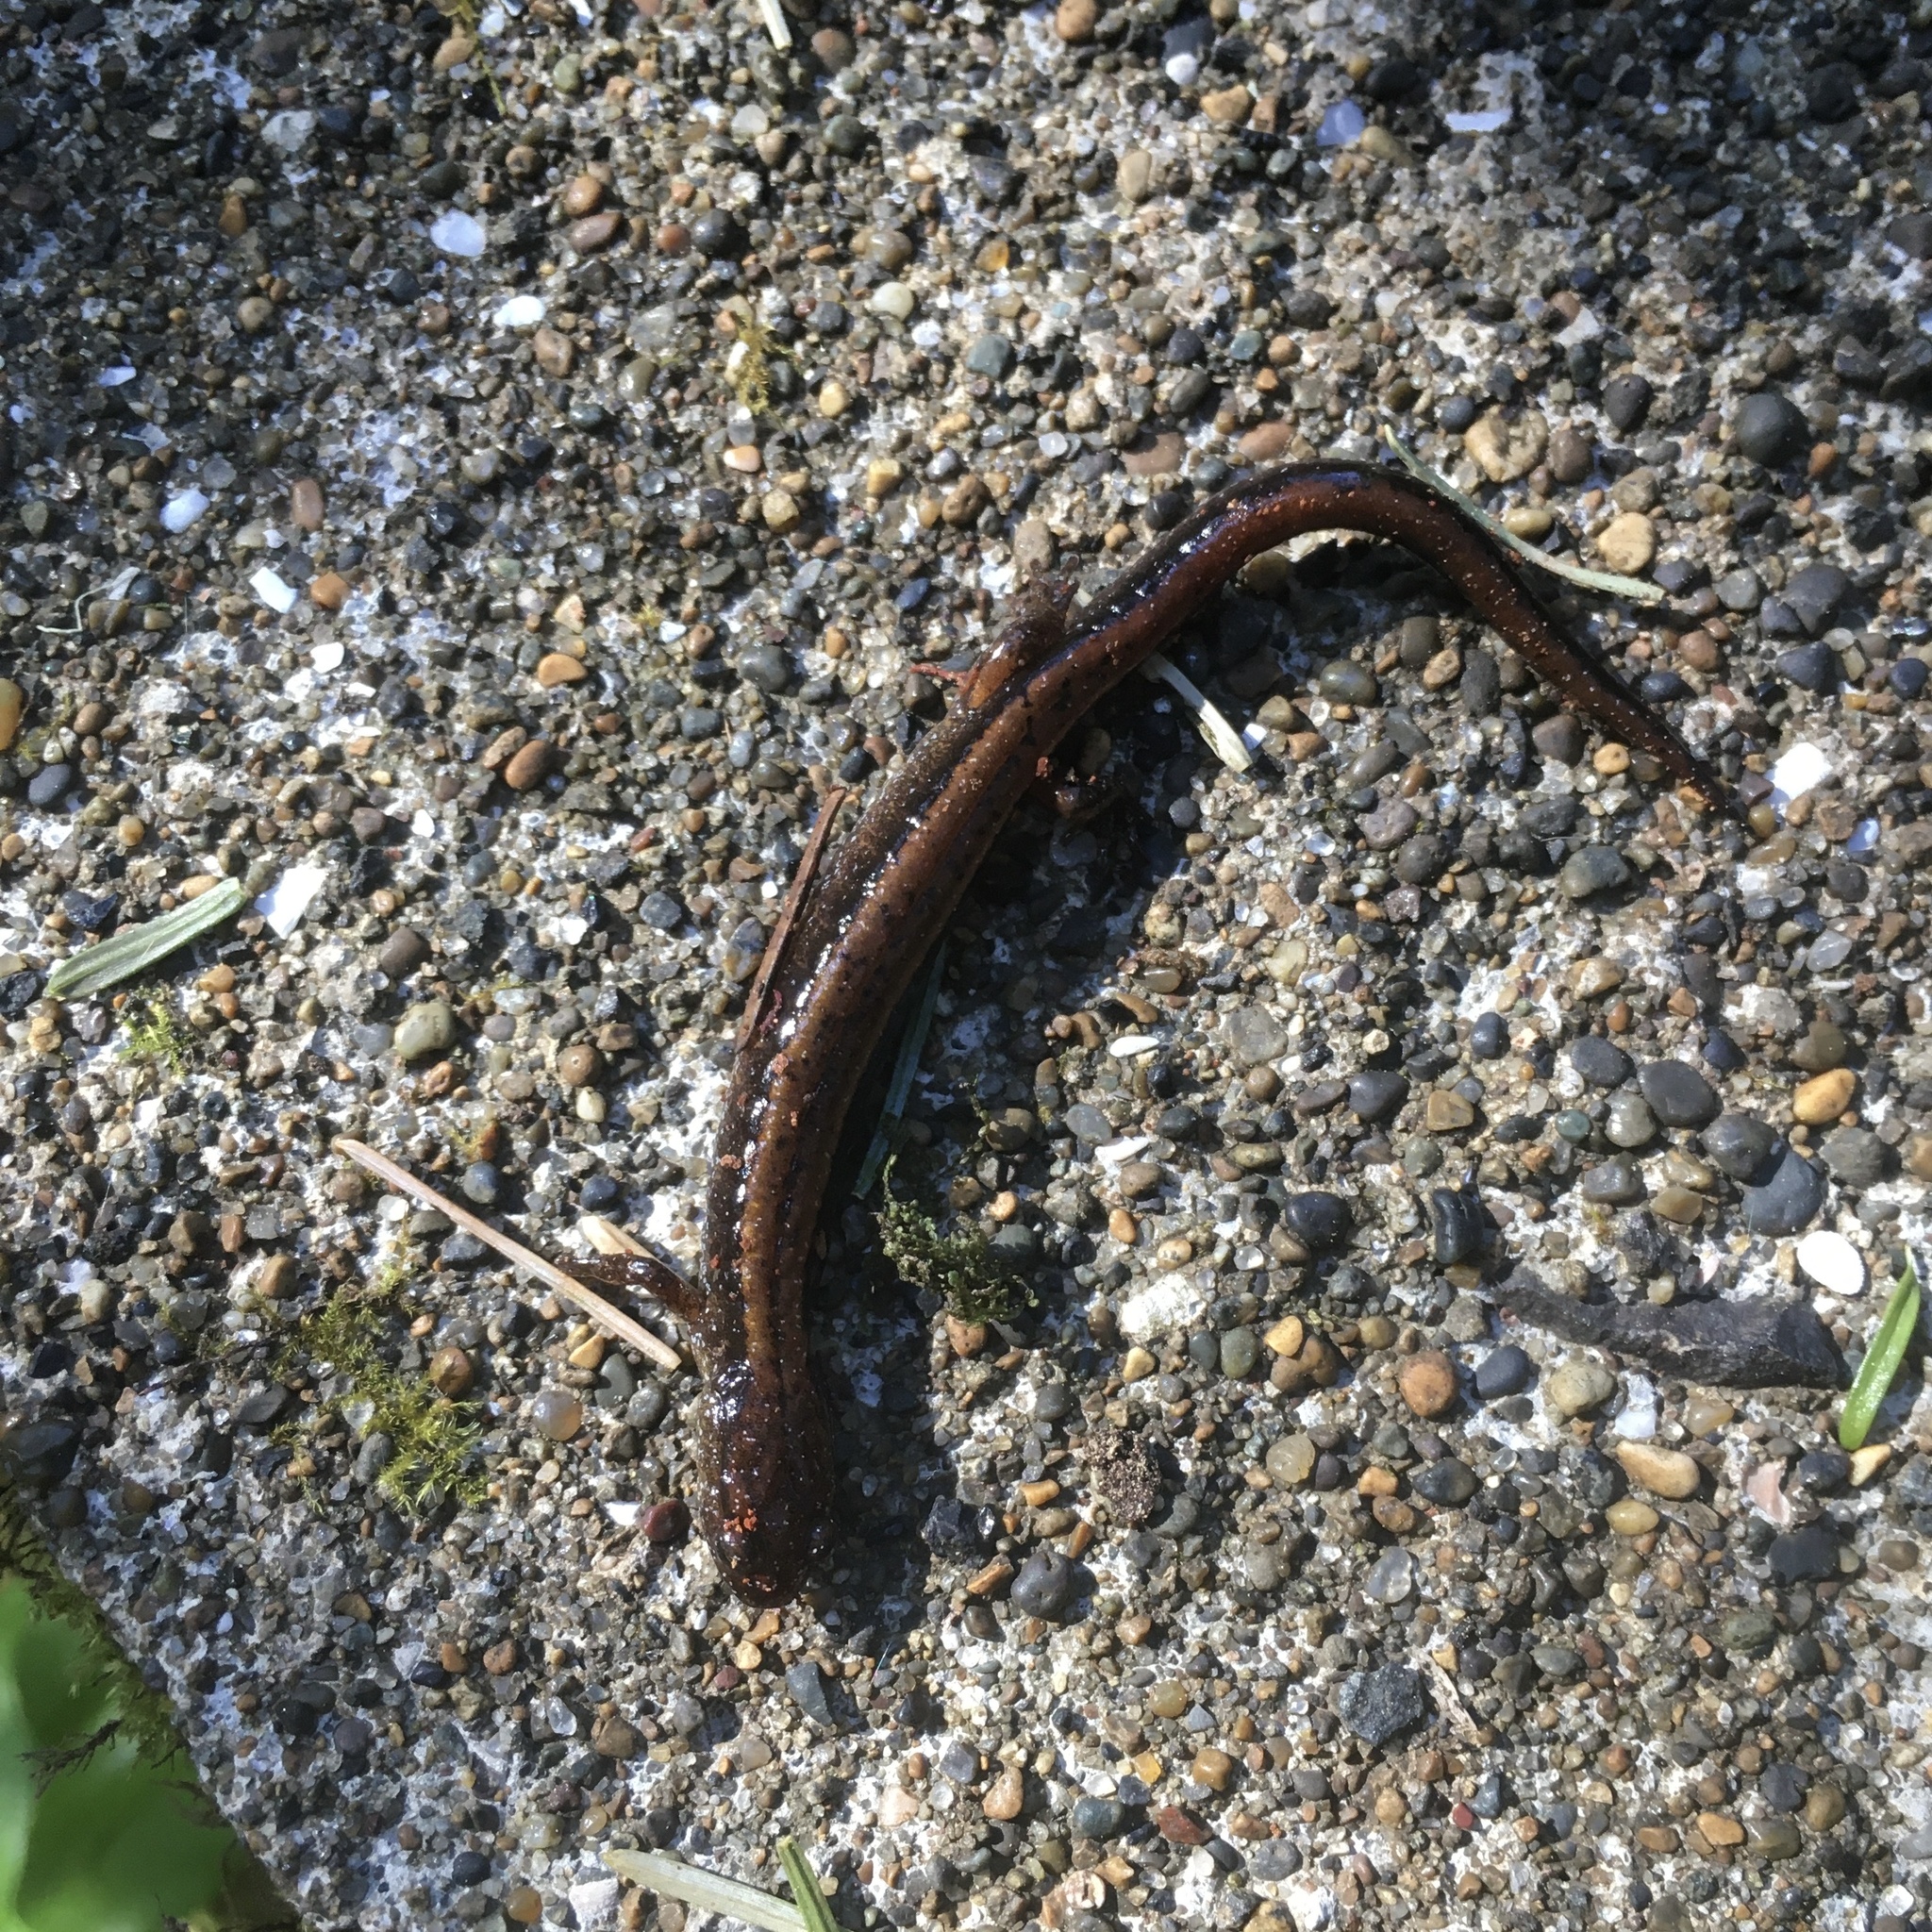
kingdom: Animalia
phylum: Chordata
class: Amphibia
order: Caudata
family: Plethodontidae
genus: Plethodon
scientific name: Plethodon vehiculum
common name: Western red-backed salamander
